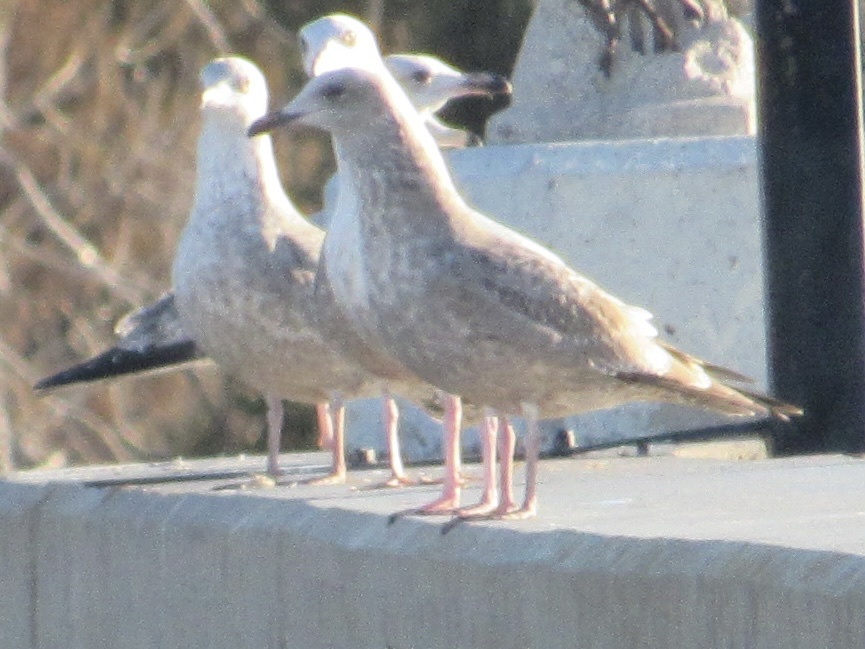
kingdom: Animalia
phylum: Chordata
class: Aves
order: Charadriiformes
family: Laridae
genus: Larus
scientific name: Larus argentatus
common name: Herring gull
